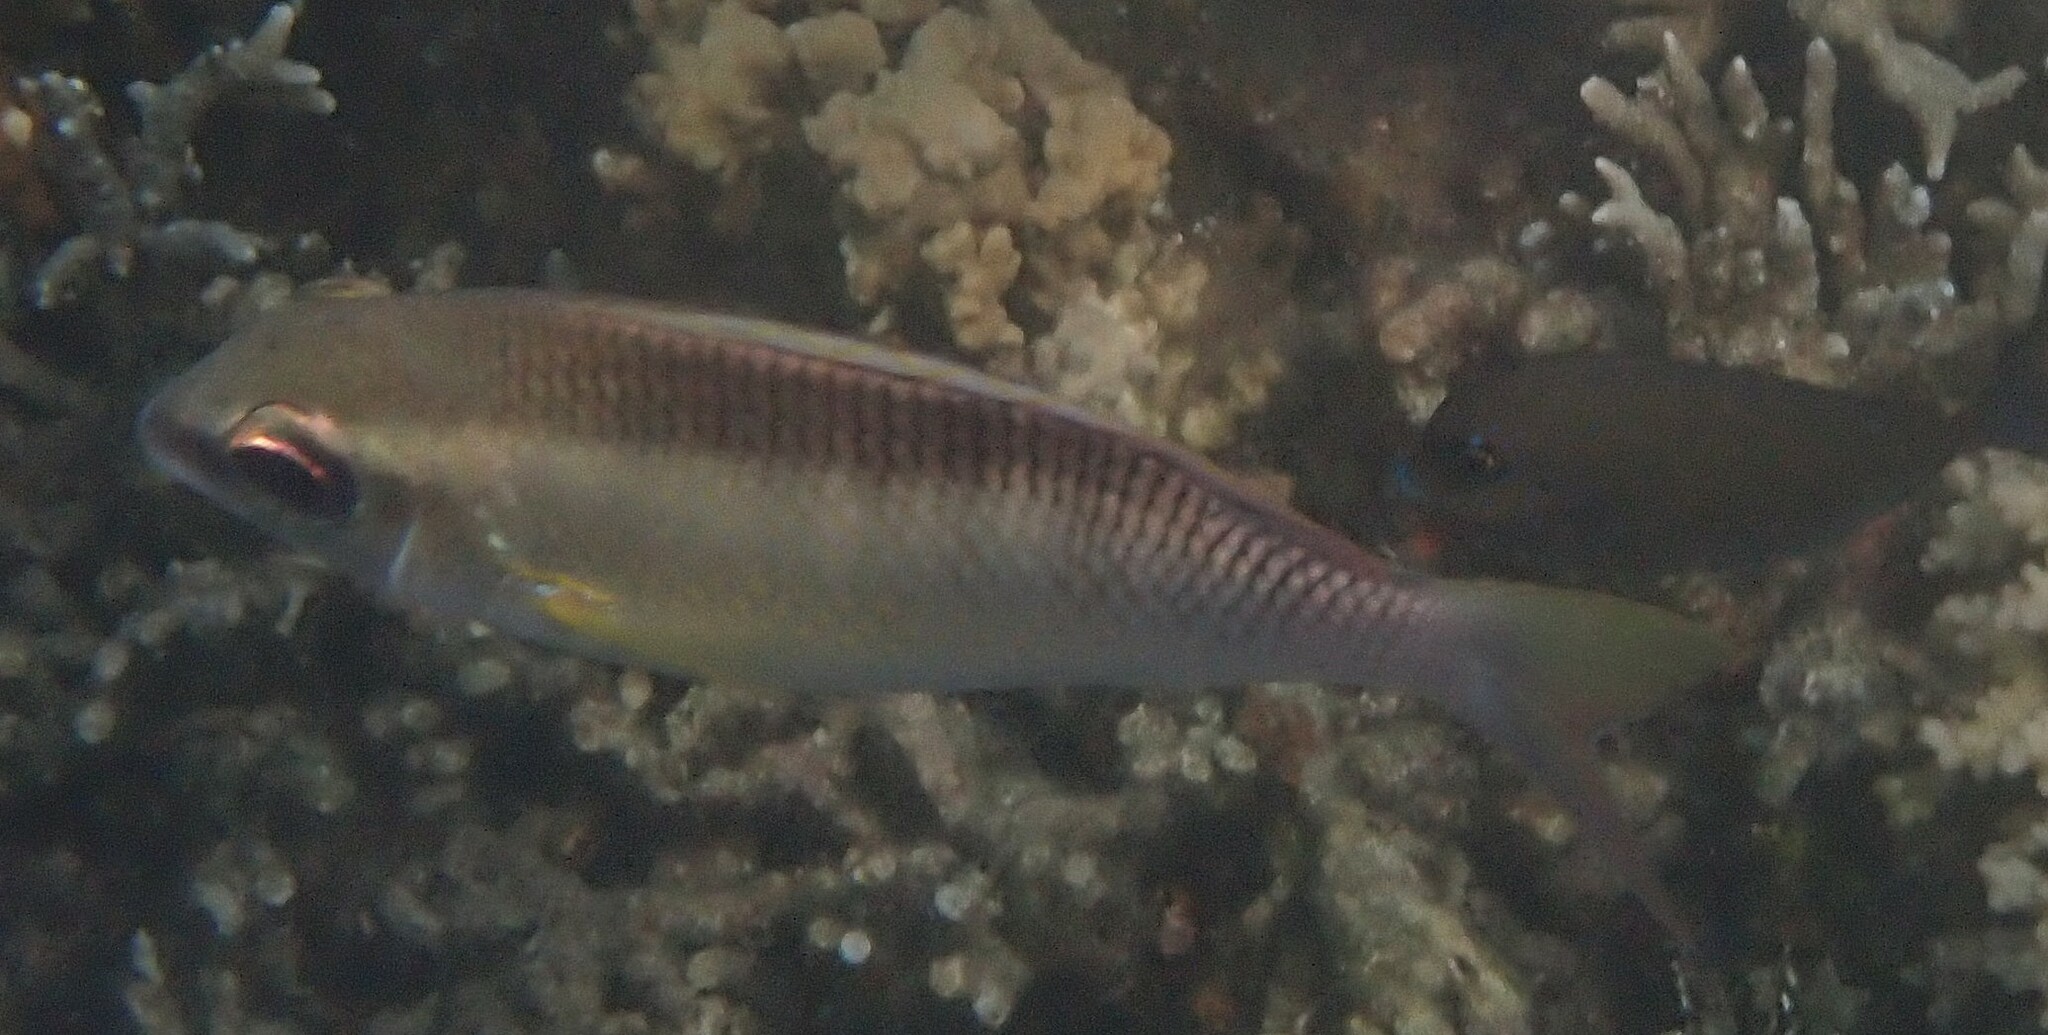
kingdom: Animalia
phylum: Chordata
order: Perciformes
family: Nemipteridae
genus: Scolopsis
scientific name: Scolopsis margaritifera
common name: Pearly monocle bream
